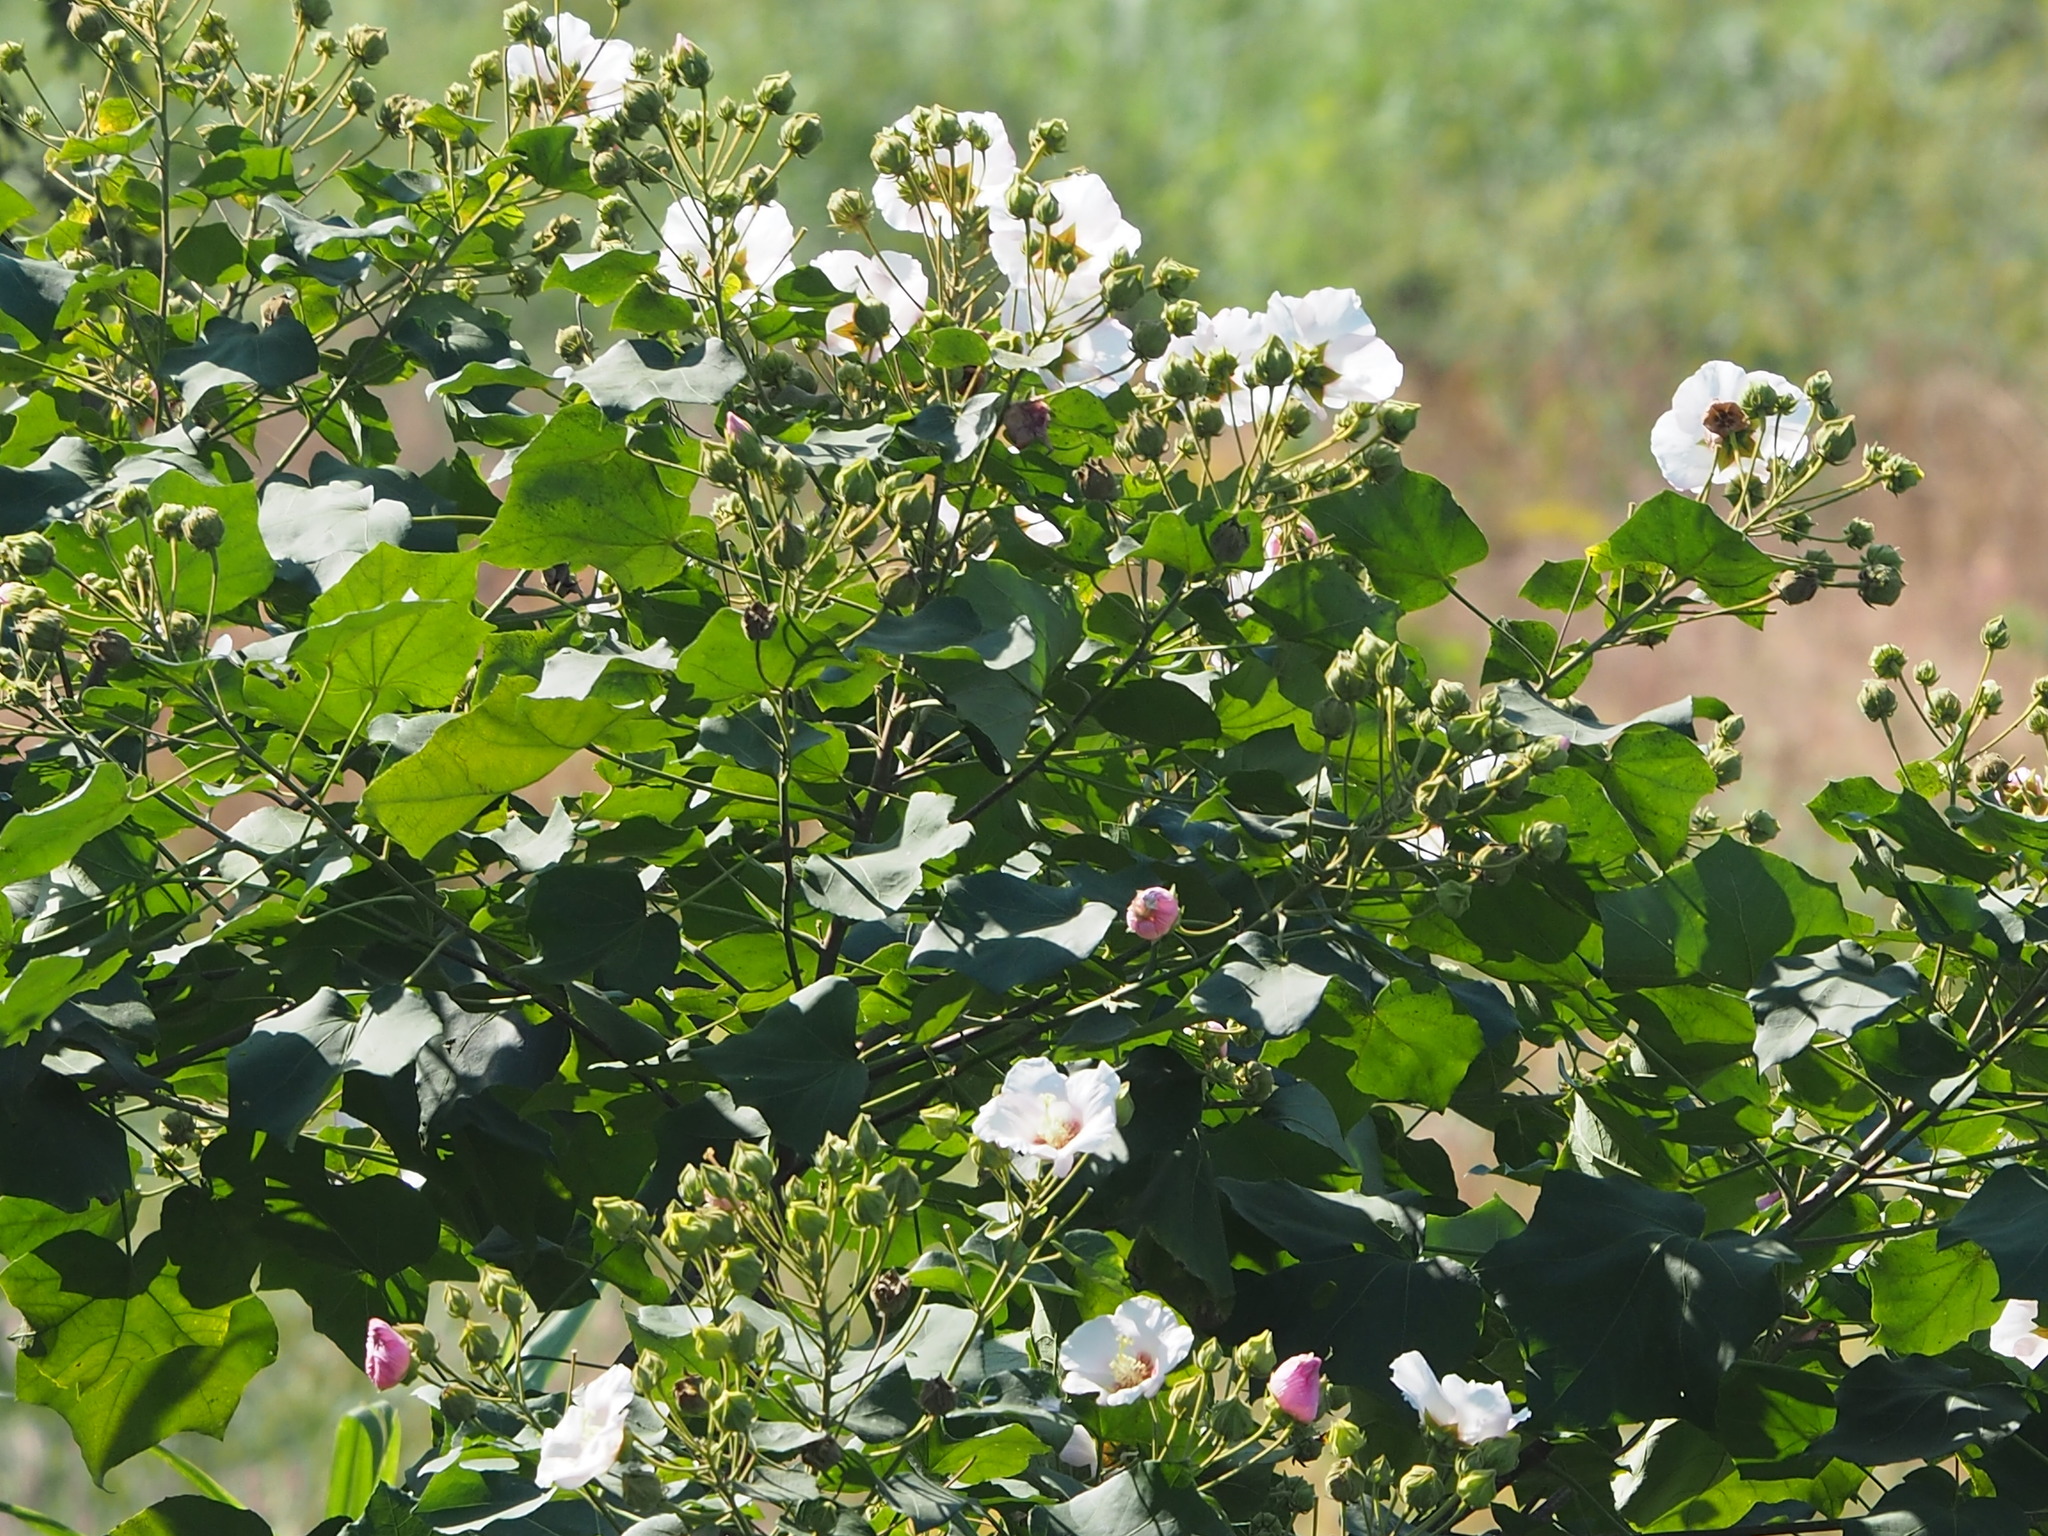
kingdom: Plantae
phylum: Tracheophyta
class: Magnoliopsida
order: Malvales
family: Malvaceae
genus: Hibiscus
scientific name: Hibiscus taiwanensis
